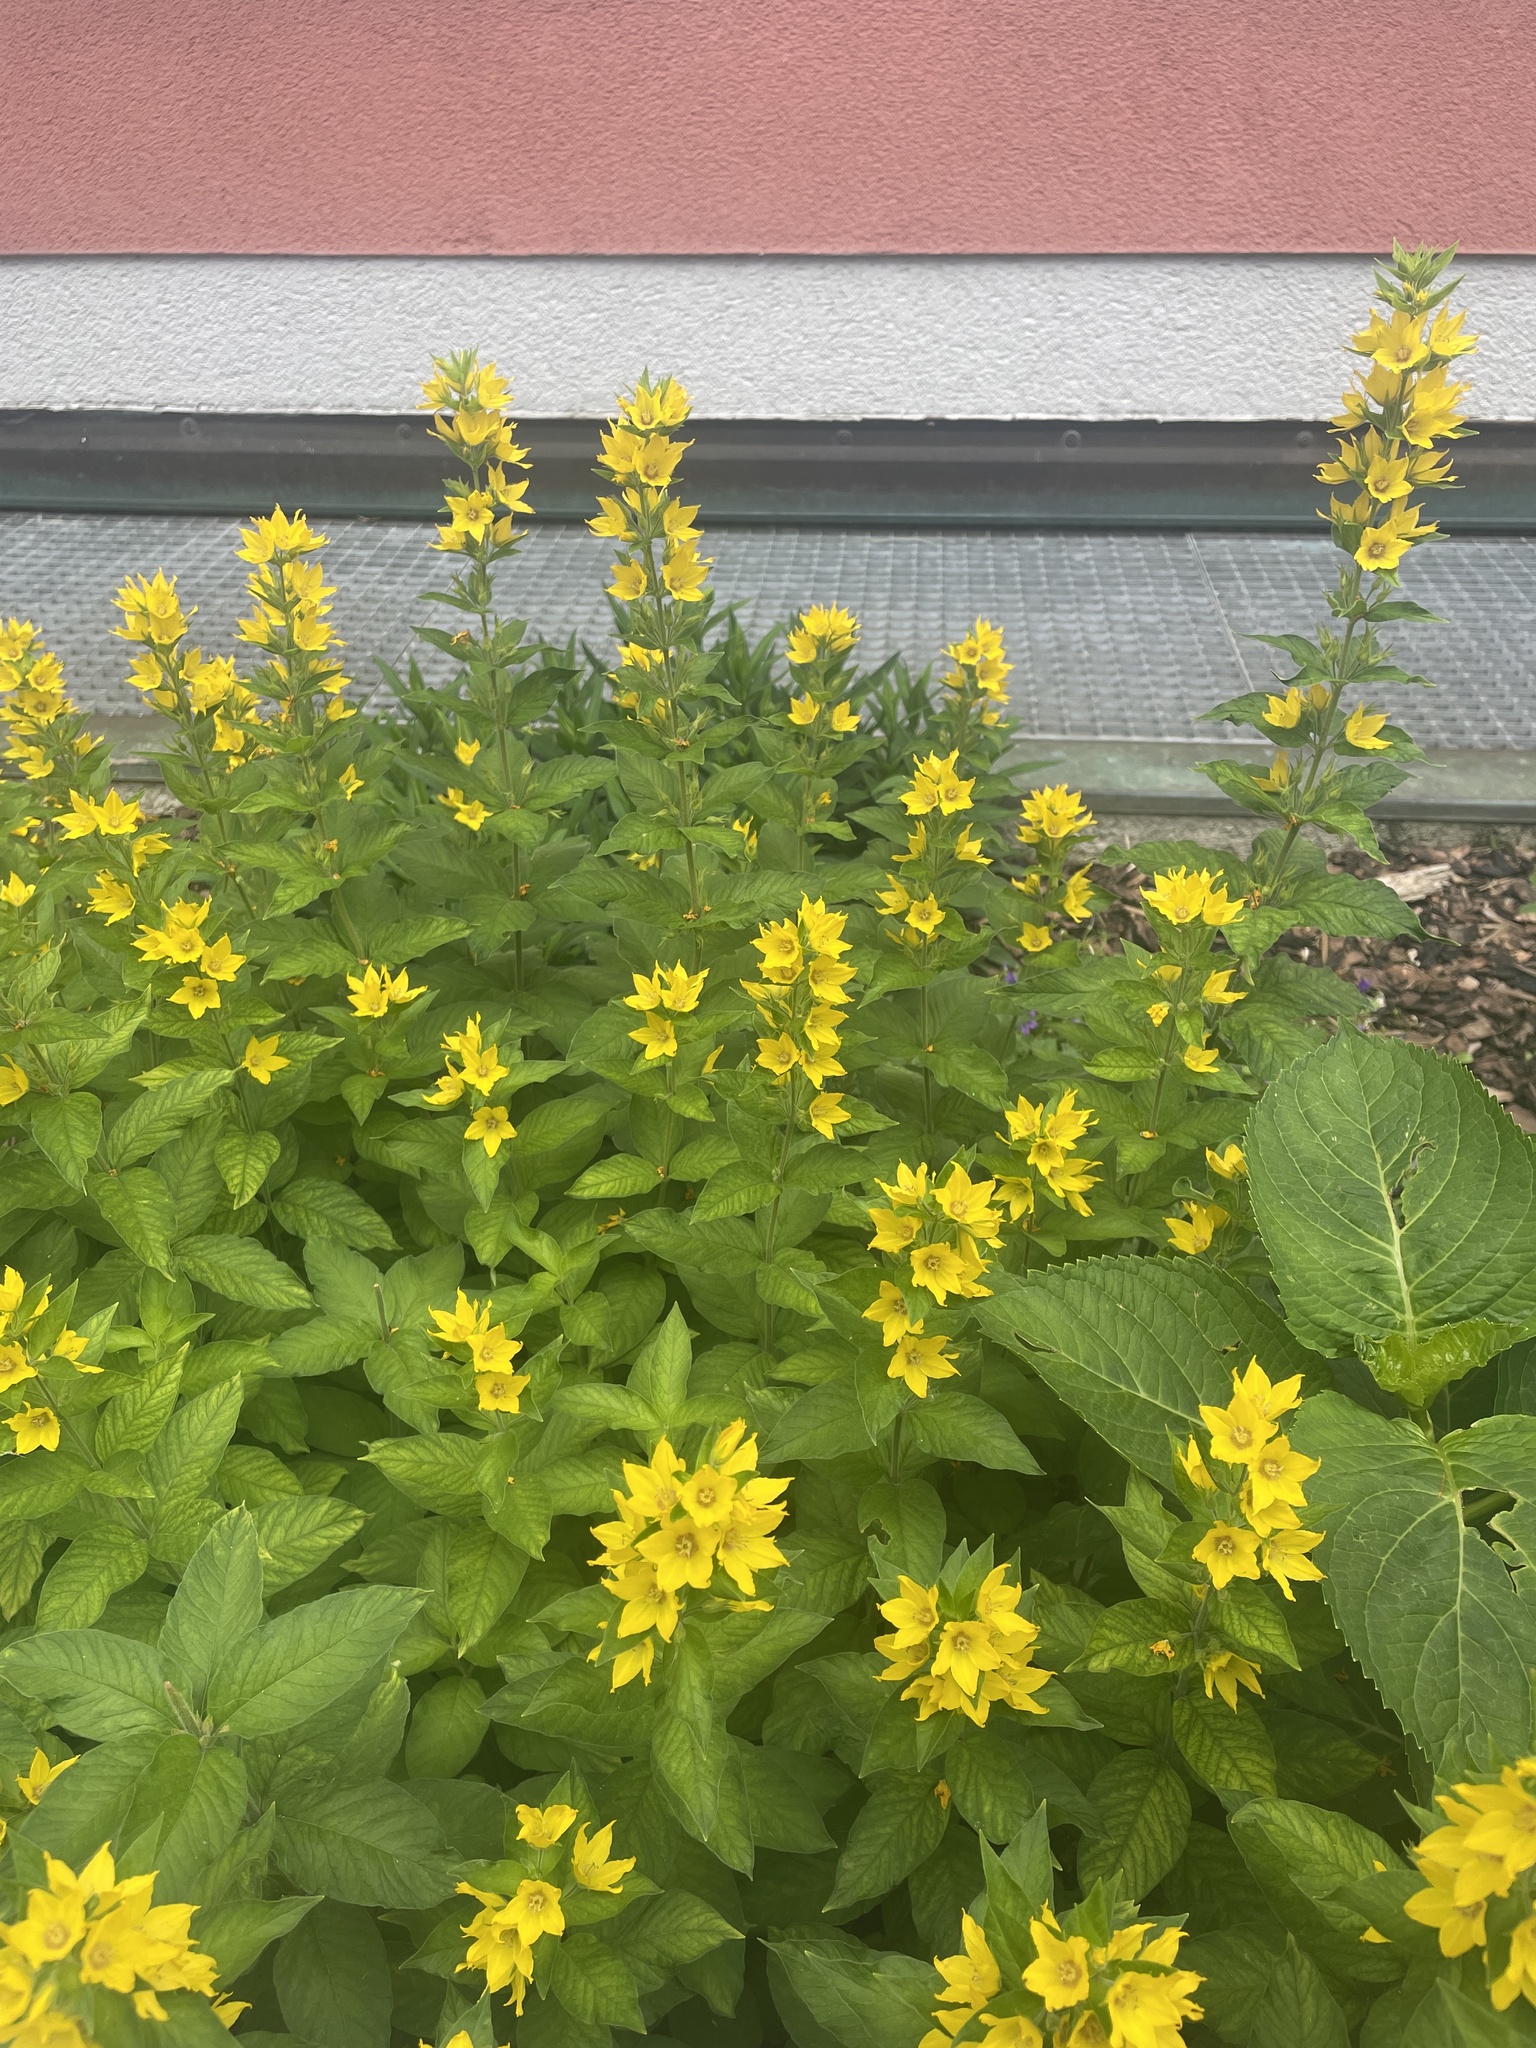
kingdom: Plantae
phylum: Tracheophyta
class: Magnoliopsida
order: Ericales
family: Primulaceae
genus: Lysimachia
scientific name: Lysimachia punctata
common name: Dotted loosestrife
